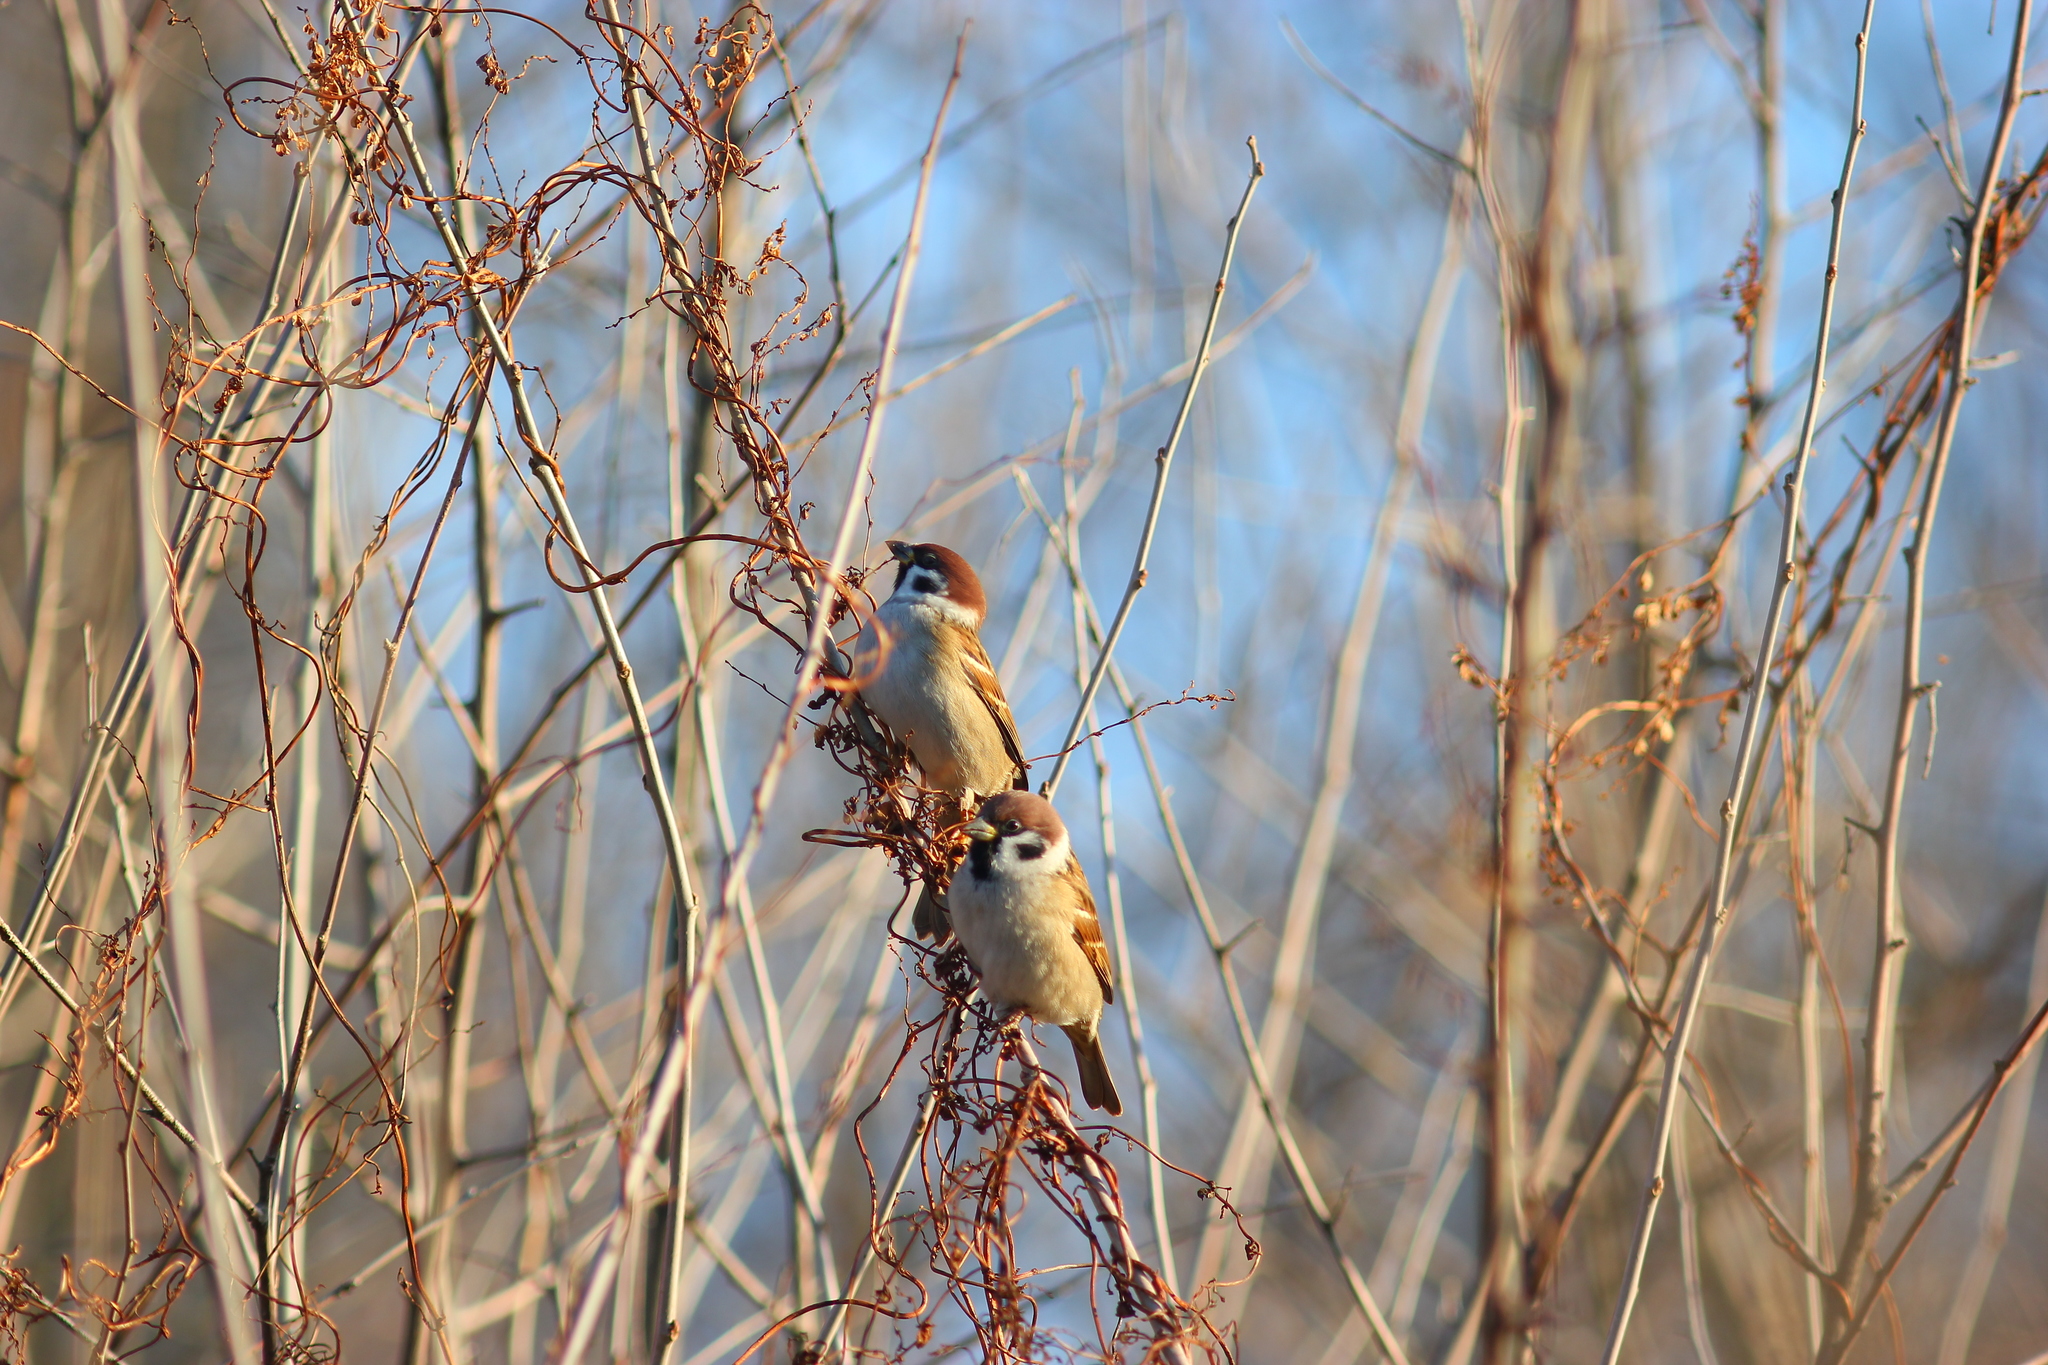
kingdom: Animalia
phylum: Chordata
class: Aves
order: Passeriformes
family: Passeridae
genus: Passer
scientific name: Passer montanus
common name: Eurasian tree sparrow
